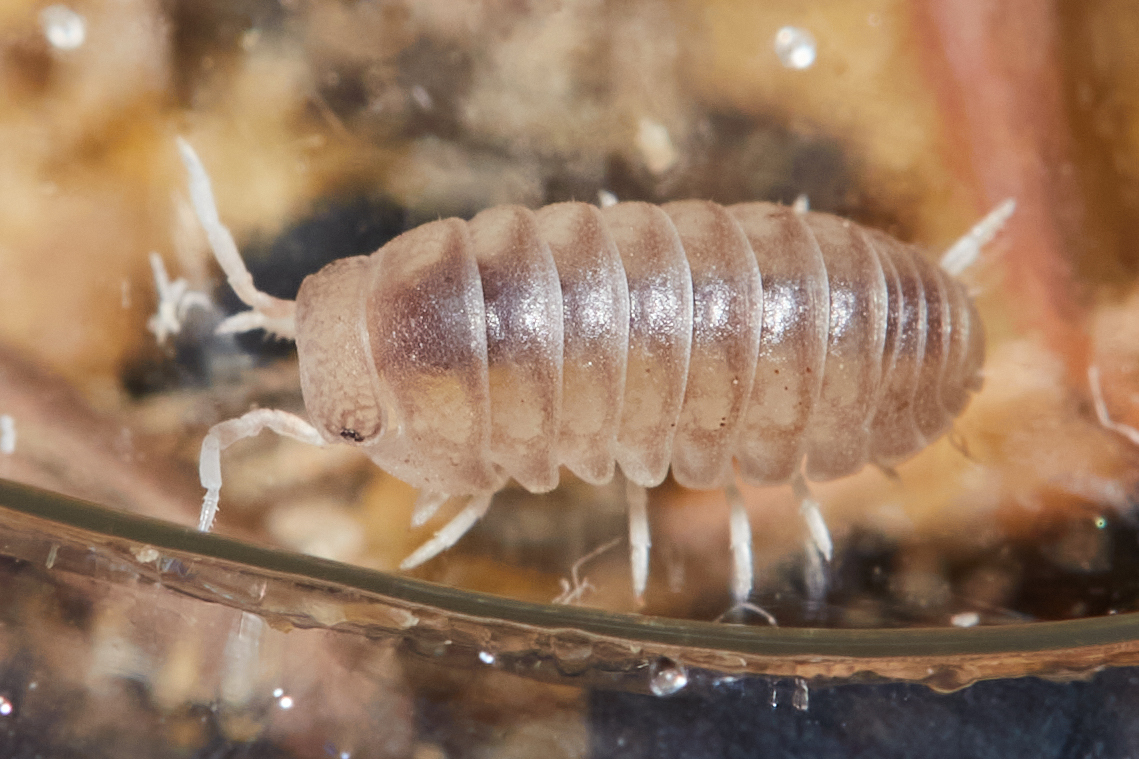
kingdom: Animalia
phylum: Arthropoda
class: Malacostraca
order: Isopoda
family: Armadillidae
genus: Venezillo
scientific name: Venezillo microphthalmus
